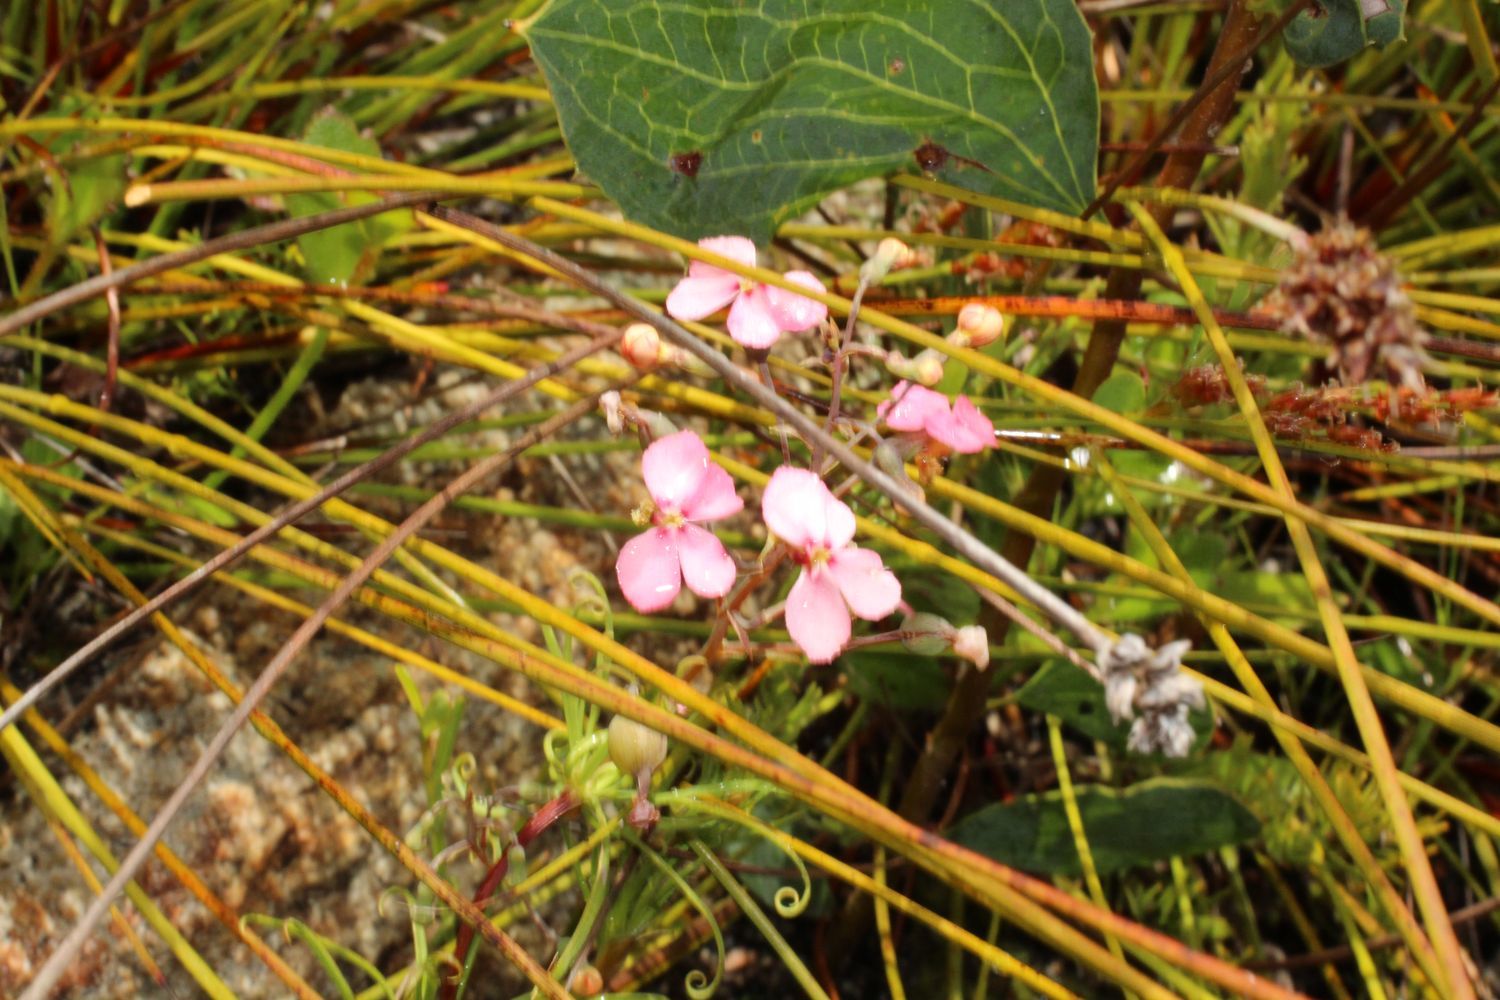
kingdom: Plantae
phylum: Tracheophyta
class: Magnoliopsida
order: Asterales
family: Stylidiaceae
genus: Stylidium
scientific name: Stylidium scandens
